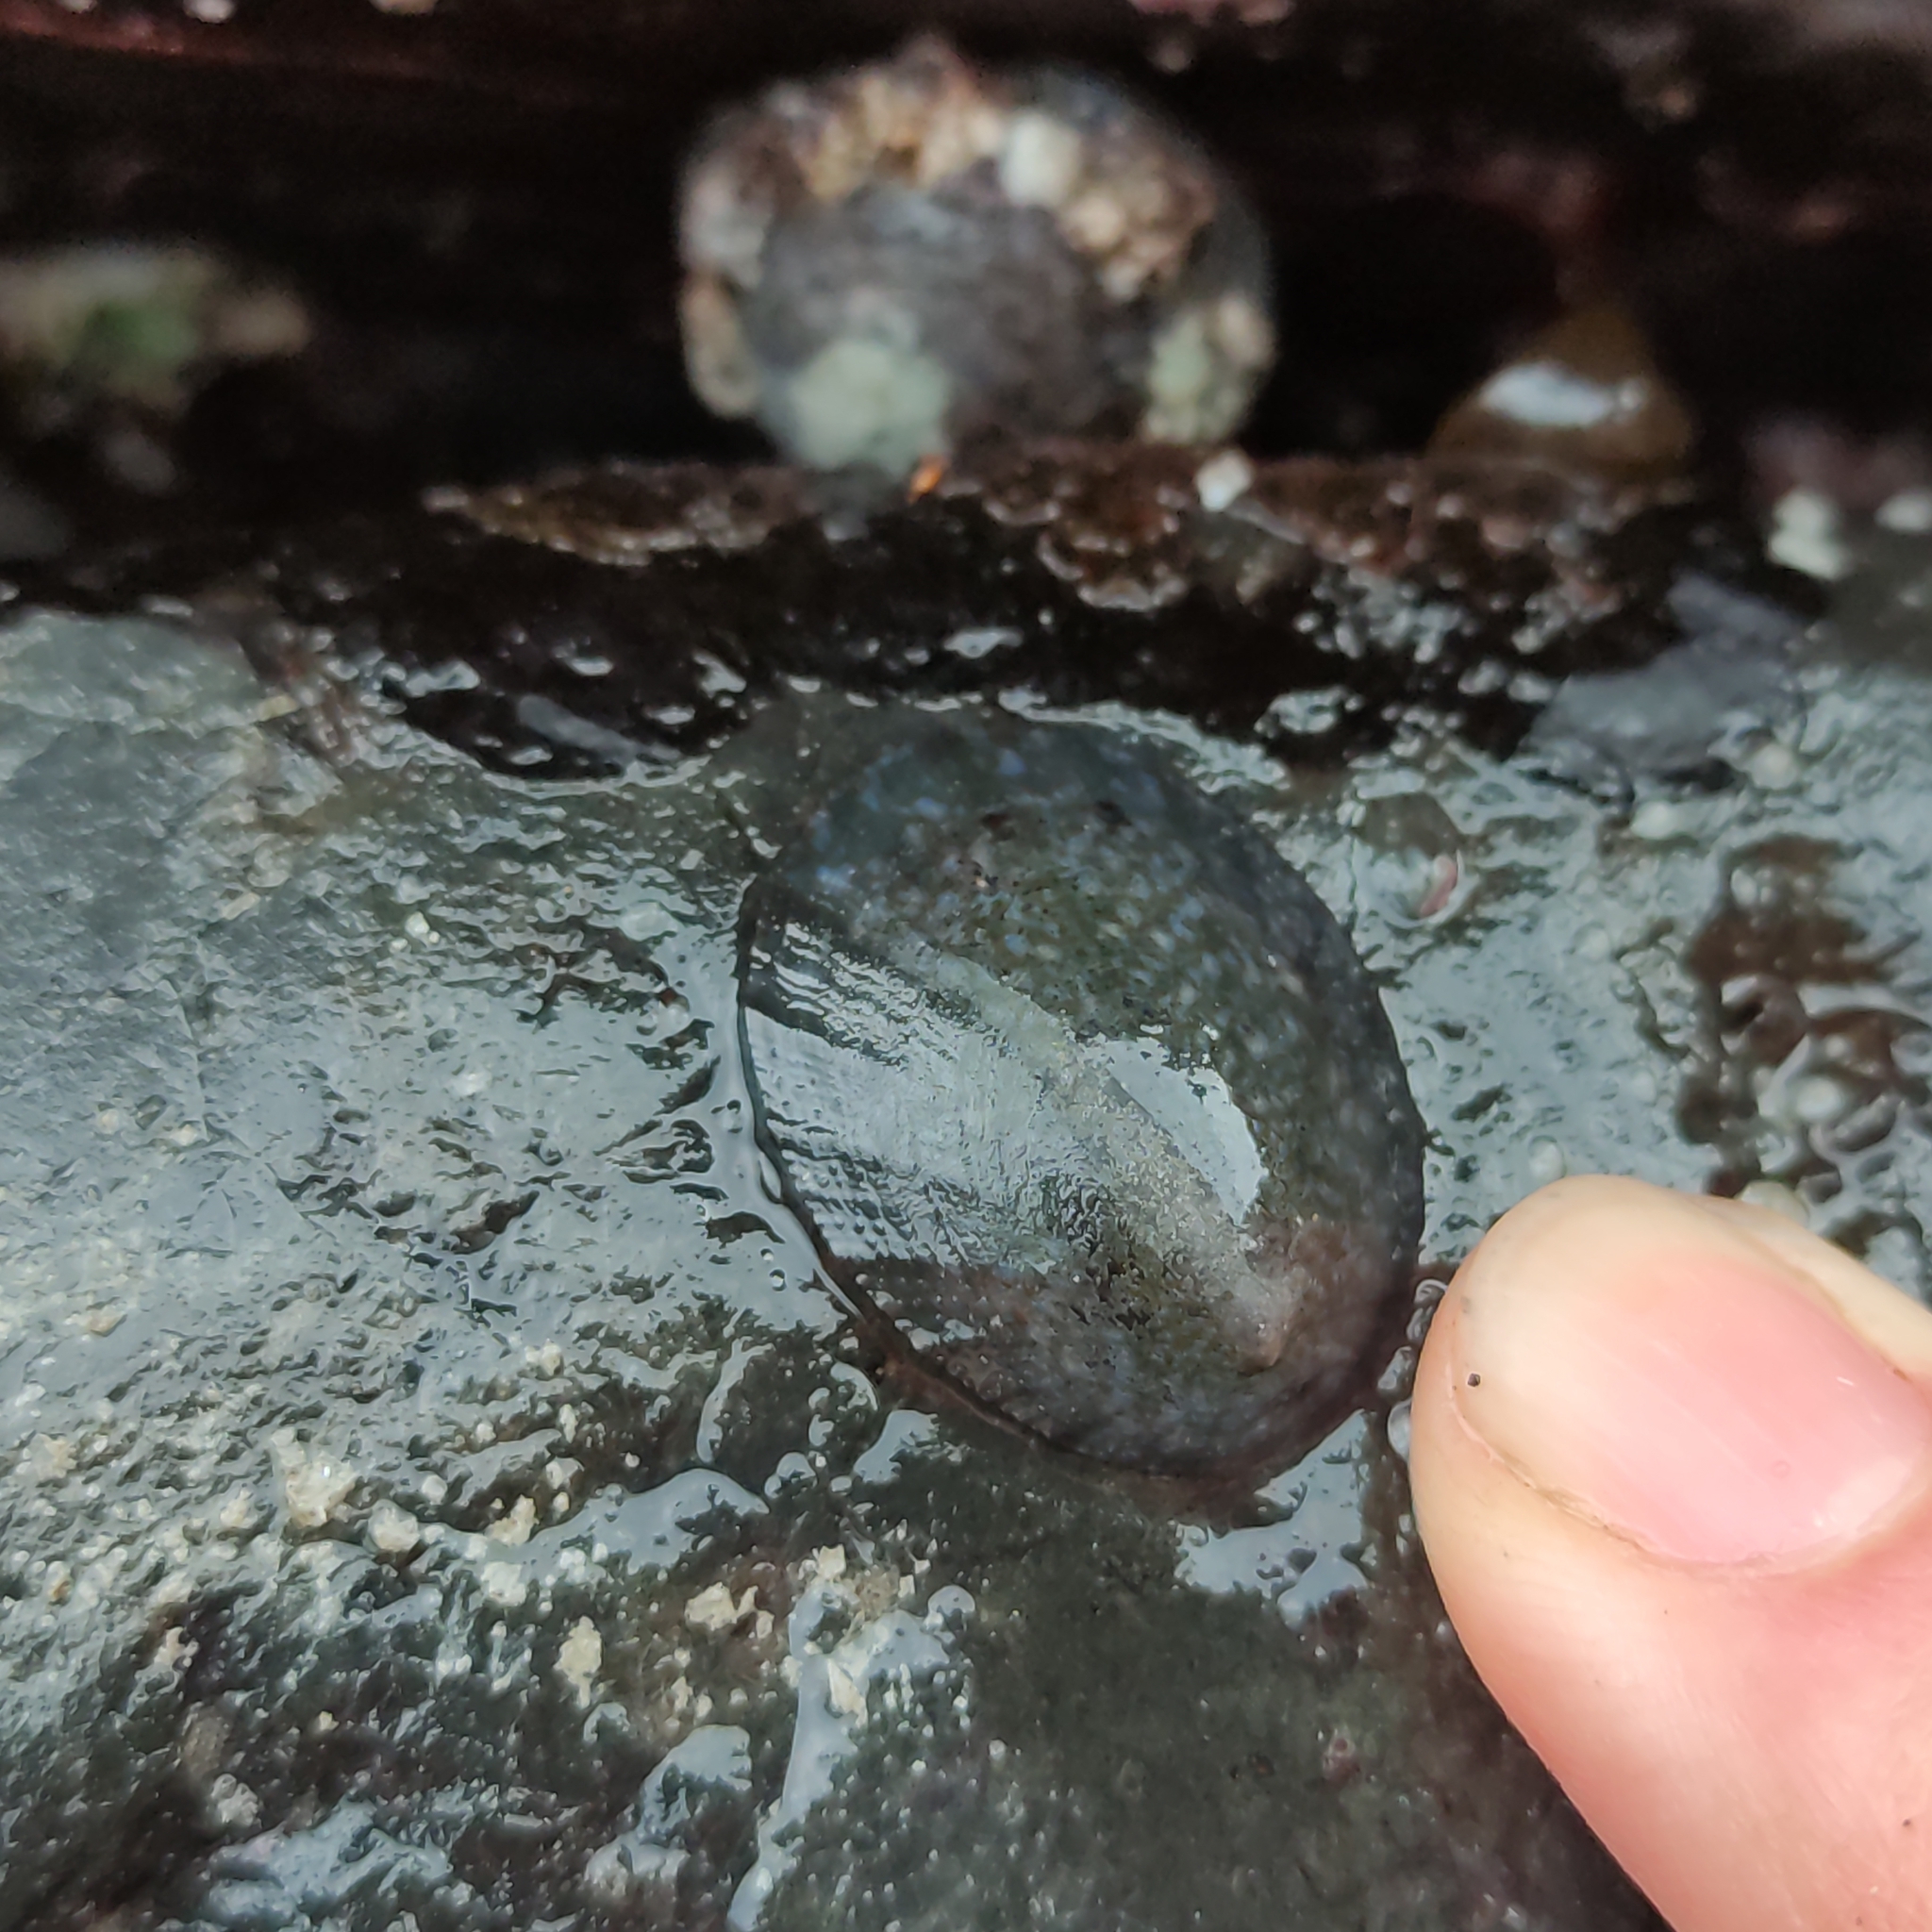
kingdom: Animalia
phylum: Mollusca
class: Gastropoda
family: Nacellidae
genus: Cellana
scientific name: Cellana radians
